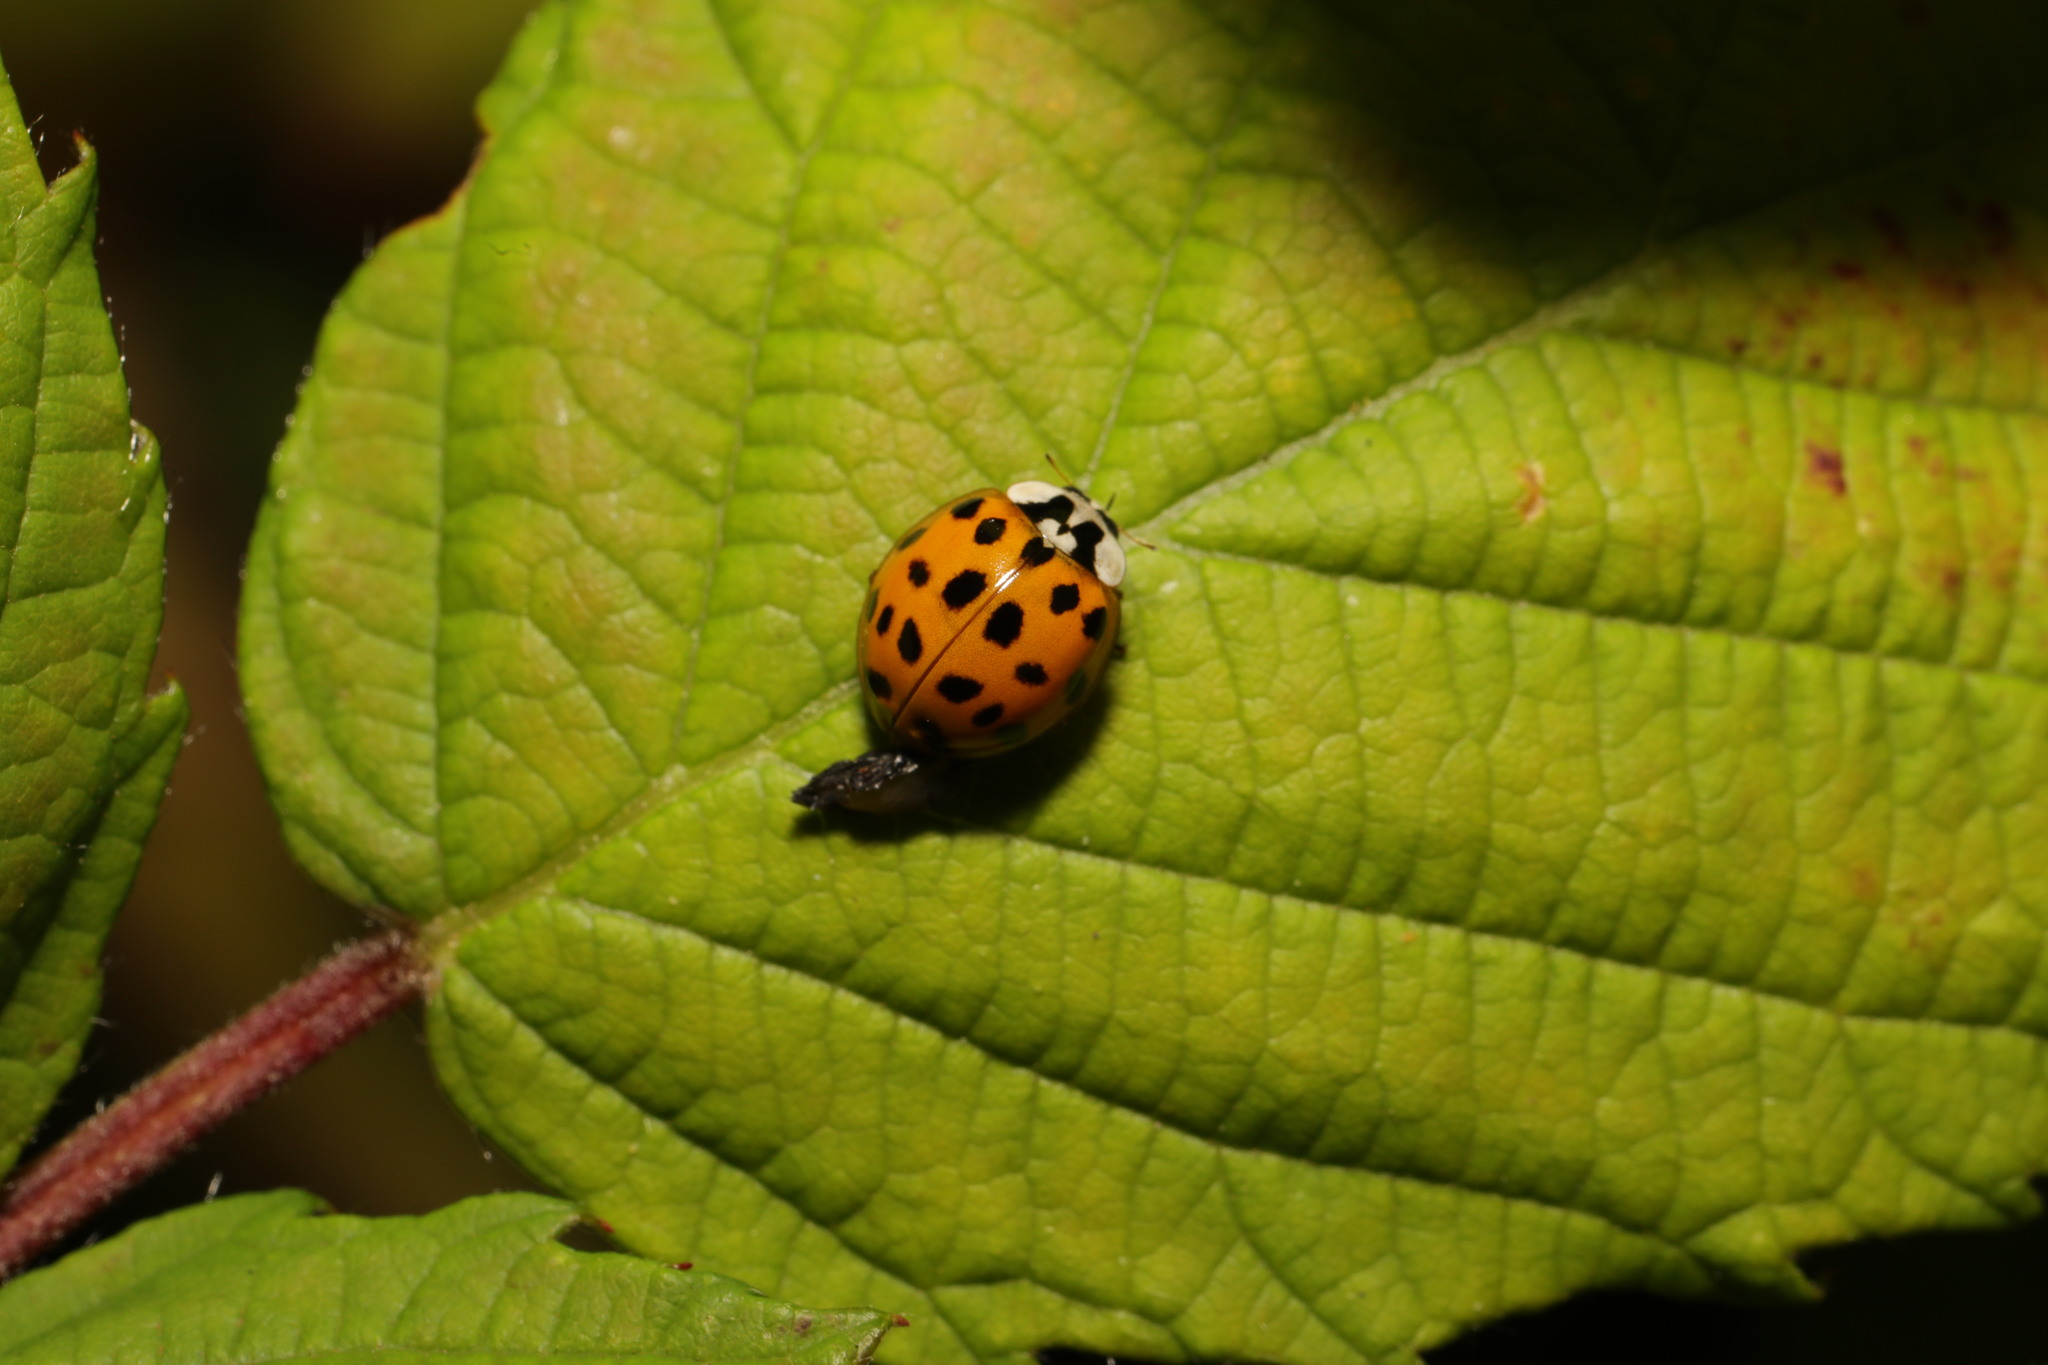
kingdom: Animalia
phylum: Arthropoda
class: Insecta
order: Coleoptera
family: Coccinellidae
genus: Harmonia
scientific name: Harmonia axyridis
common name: Harlequin ladybird
